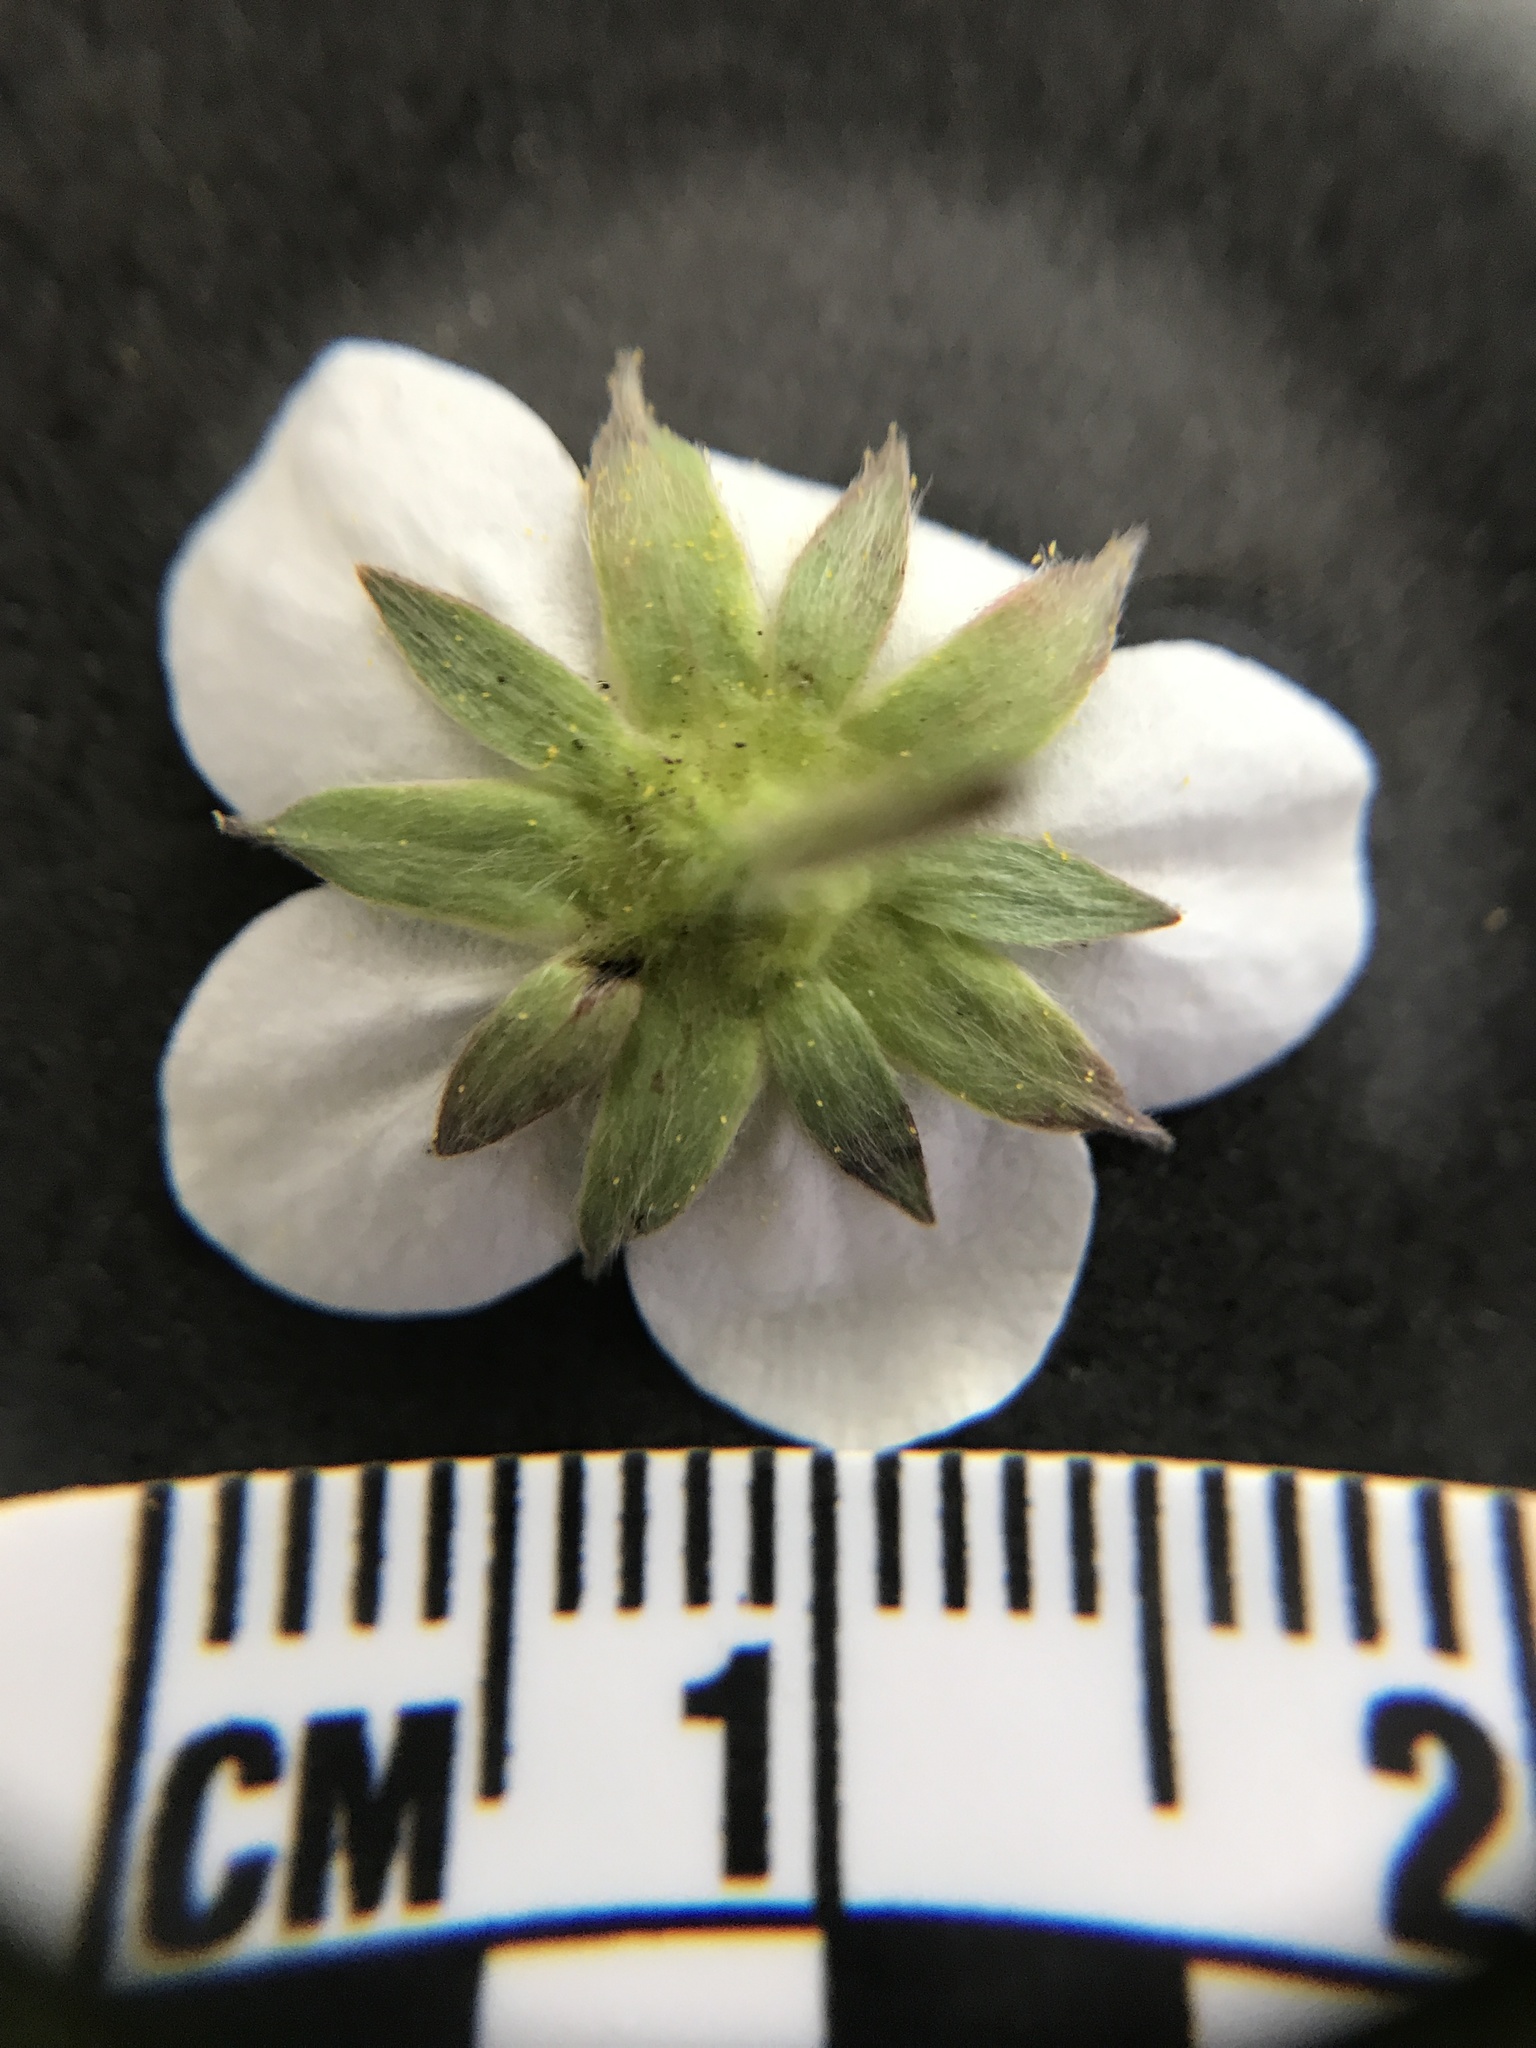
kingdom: Plantae
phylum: Tracheophyta
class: Magnoliopsida
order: Rosales
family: Rosaceae
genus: Fragaria
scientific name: Fragaria virginiana
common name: Thickleaved wild strawberry
